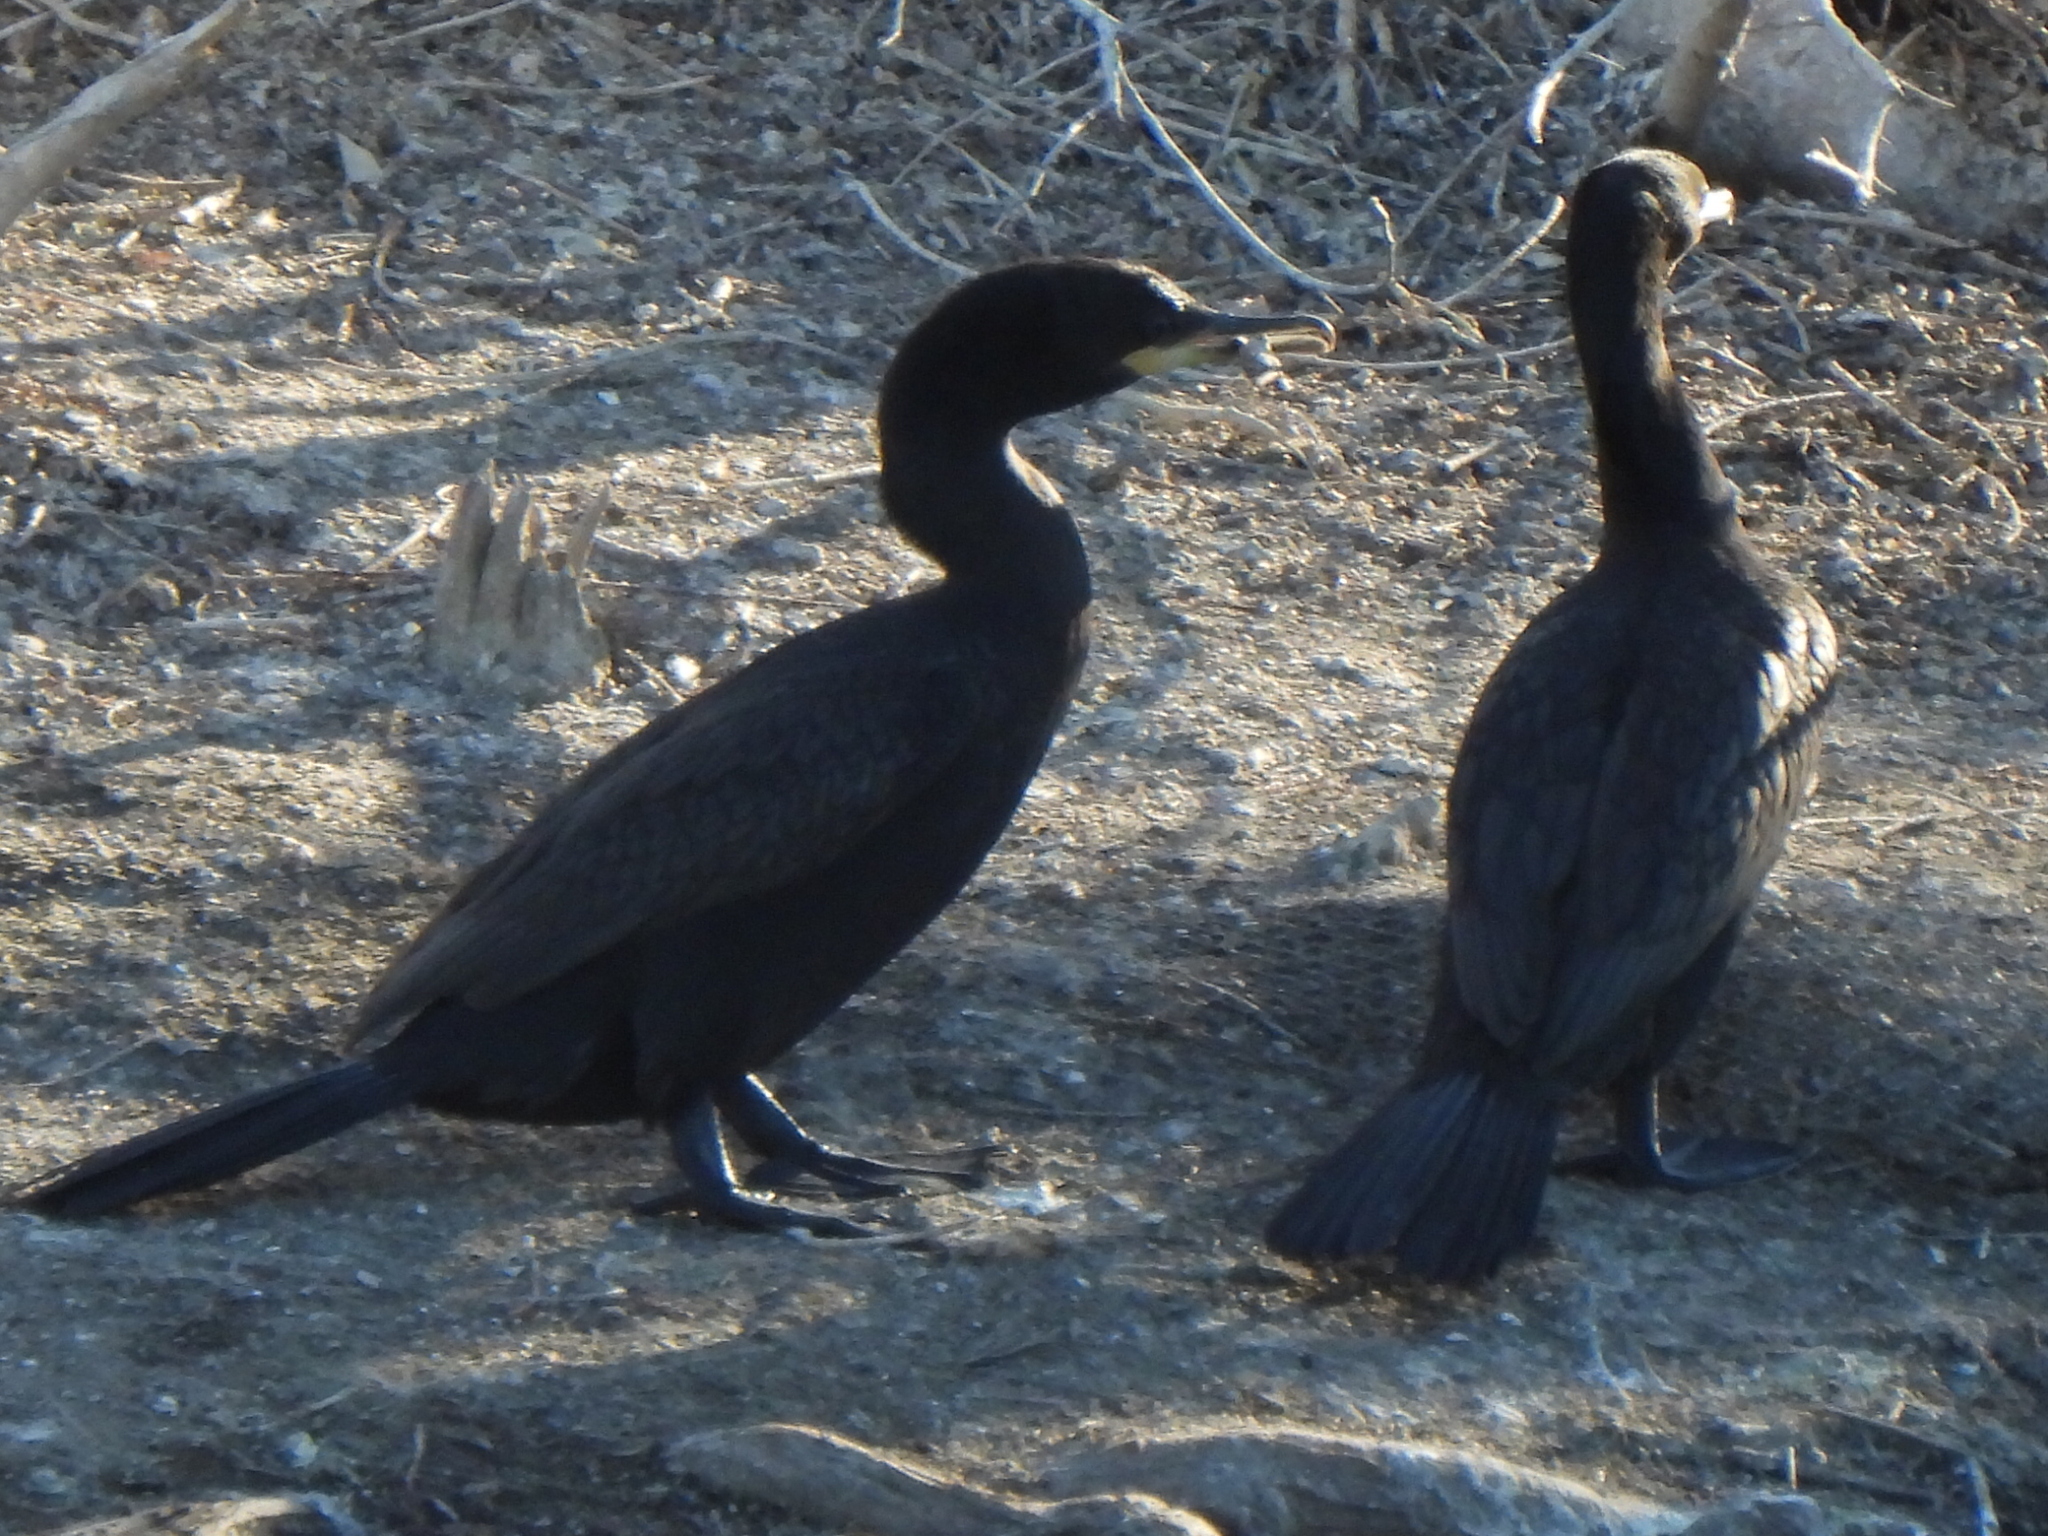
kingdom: Animalia
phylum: Chordata
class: Aves
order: Suliformes
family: Phalacrocoracidae
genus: Phalacrocorax
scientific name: Phalacrocorax brasilianus
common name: Neotropic cormorant
